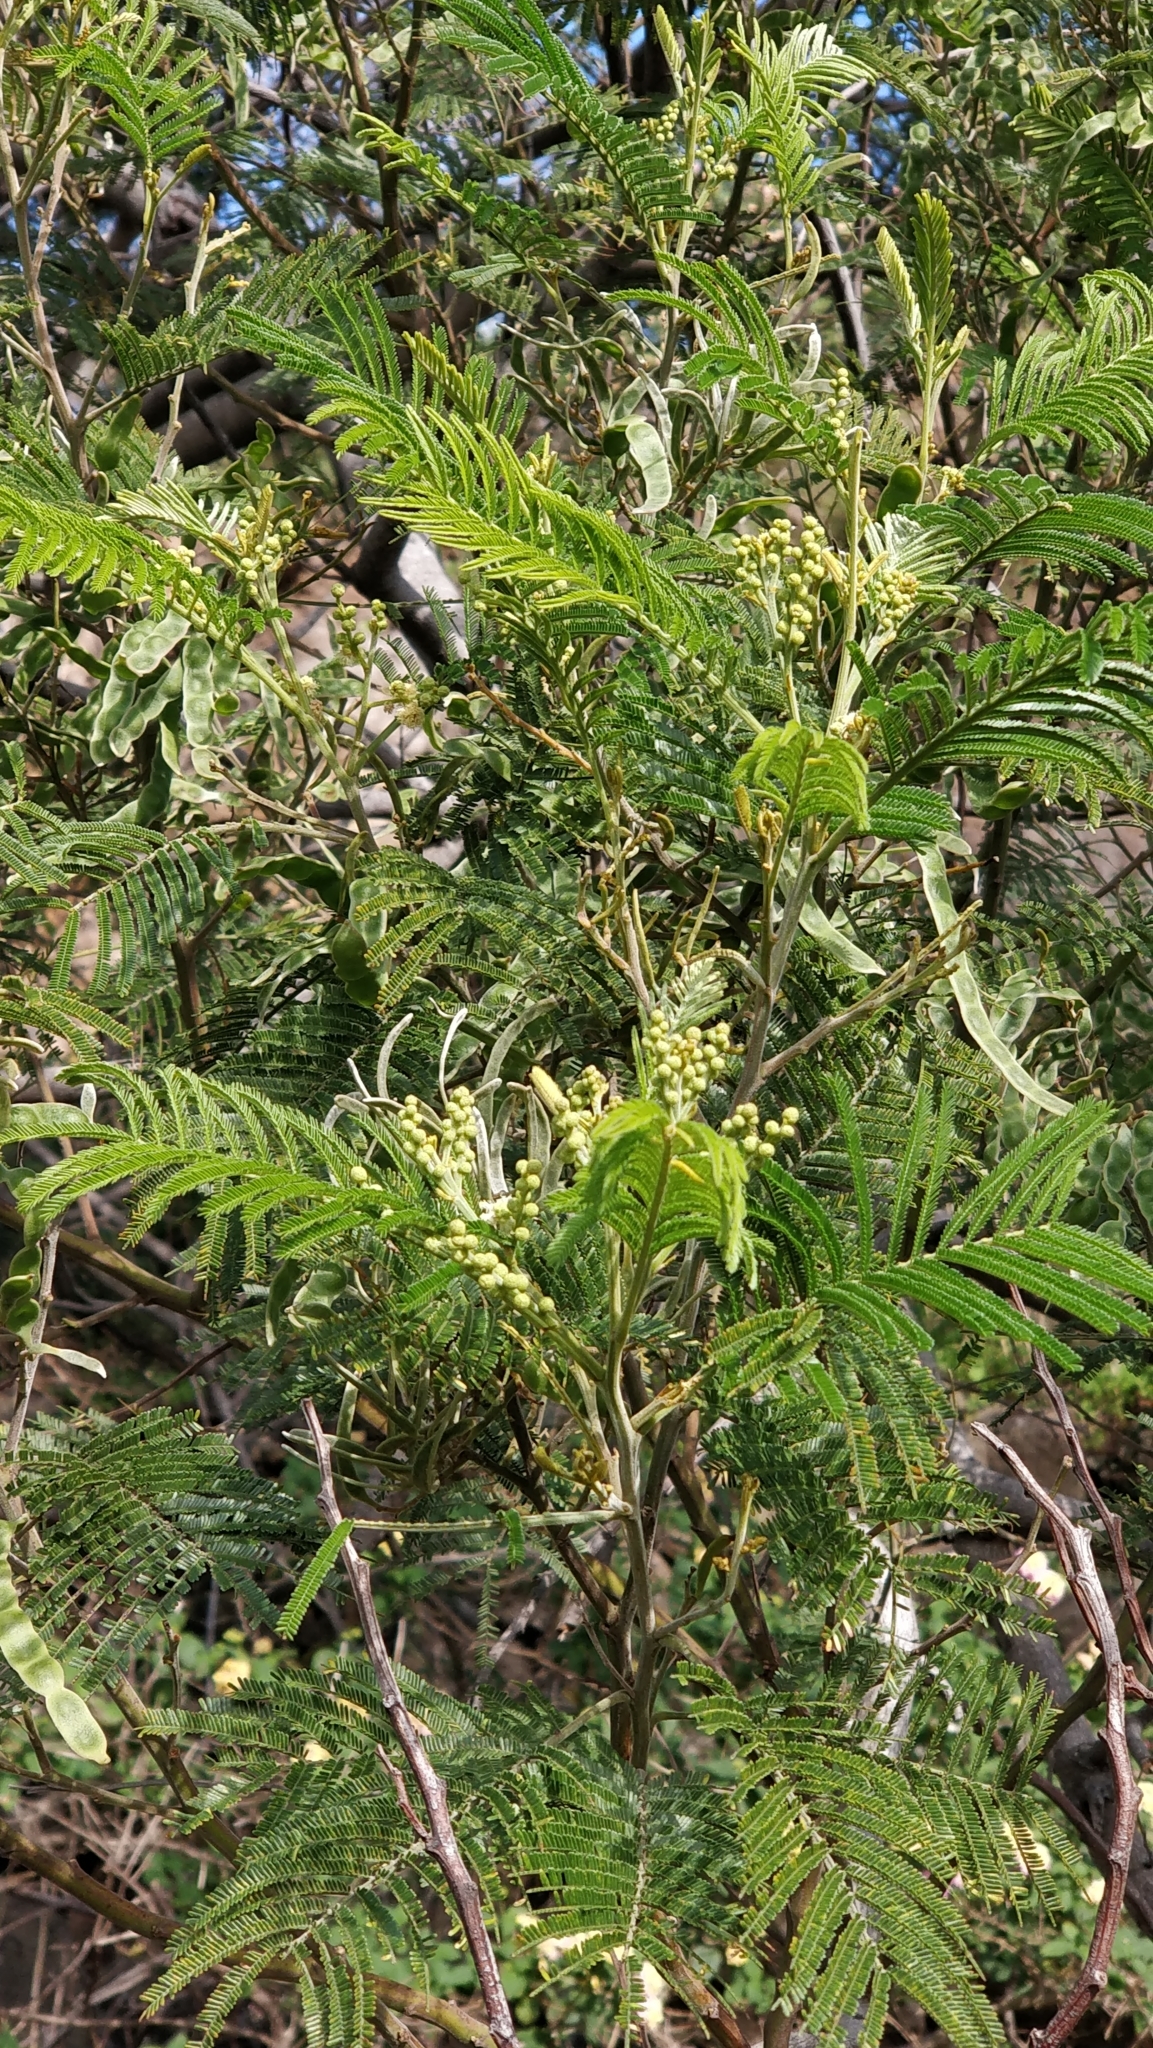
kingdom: Plantae
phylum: Tracheophyta
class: Magnoliopsida
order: Fabales
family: Fabaceae
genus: Acacia
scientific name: Acacia mearnsii
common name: Black wattle
